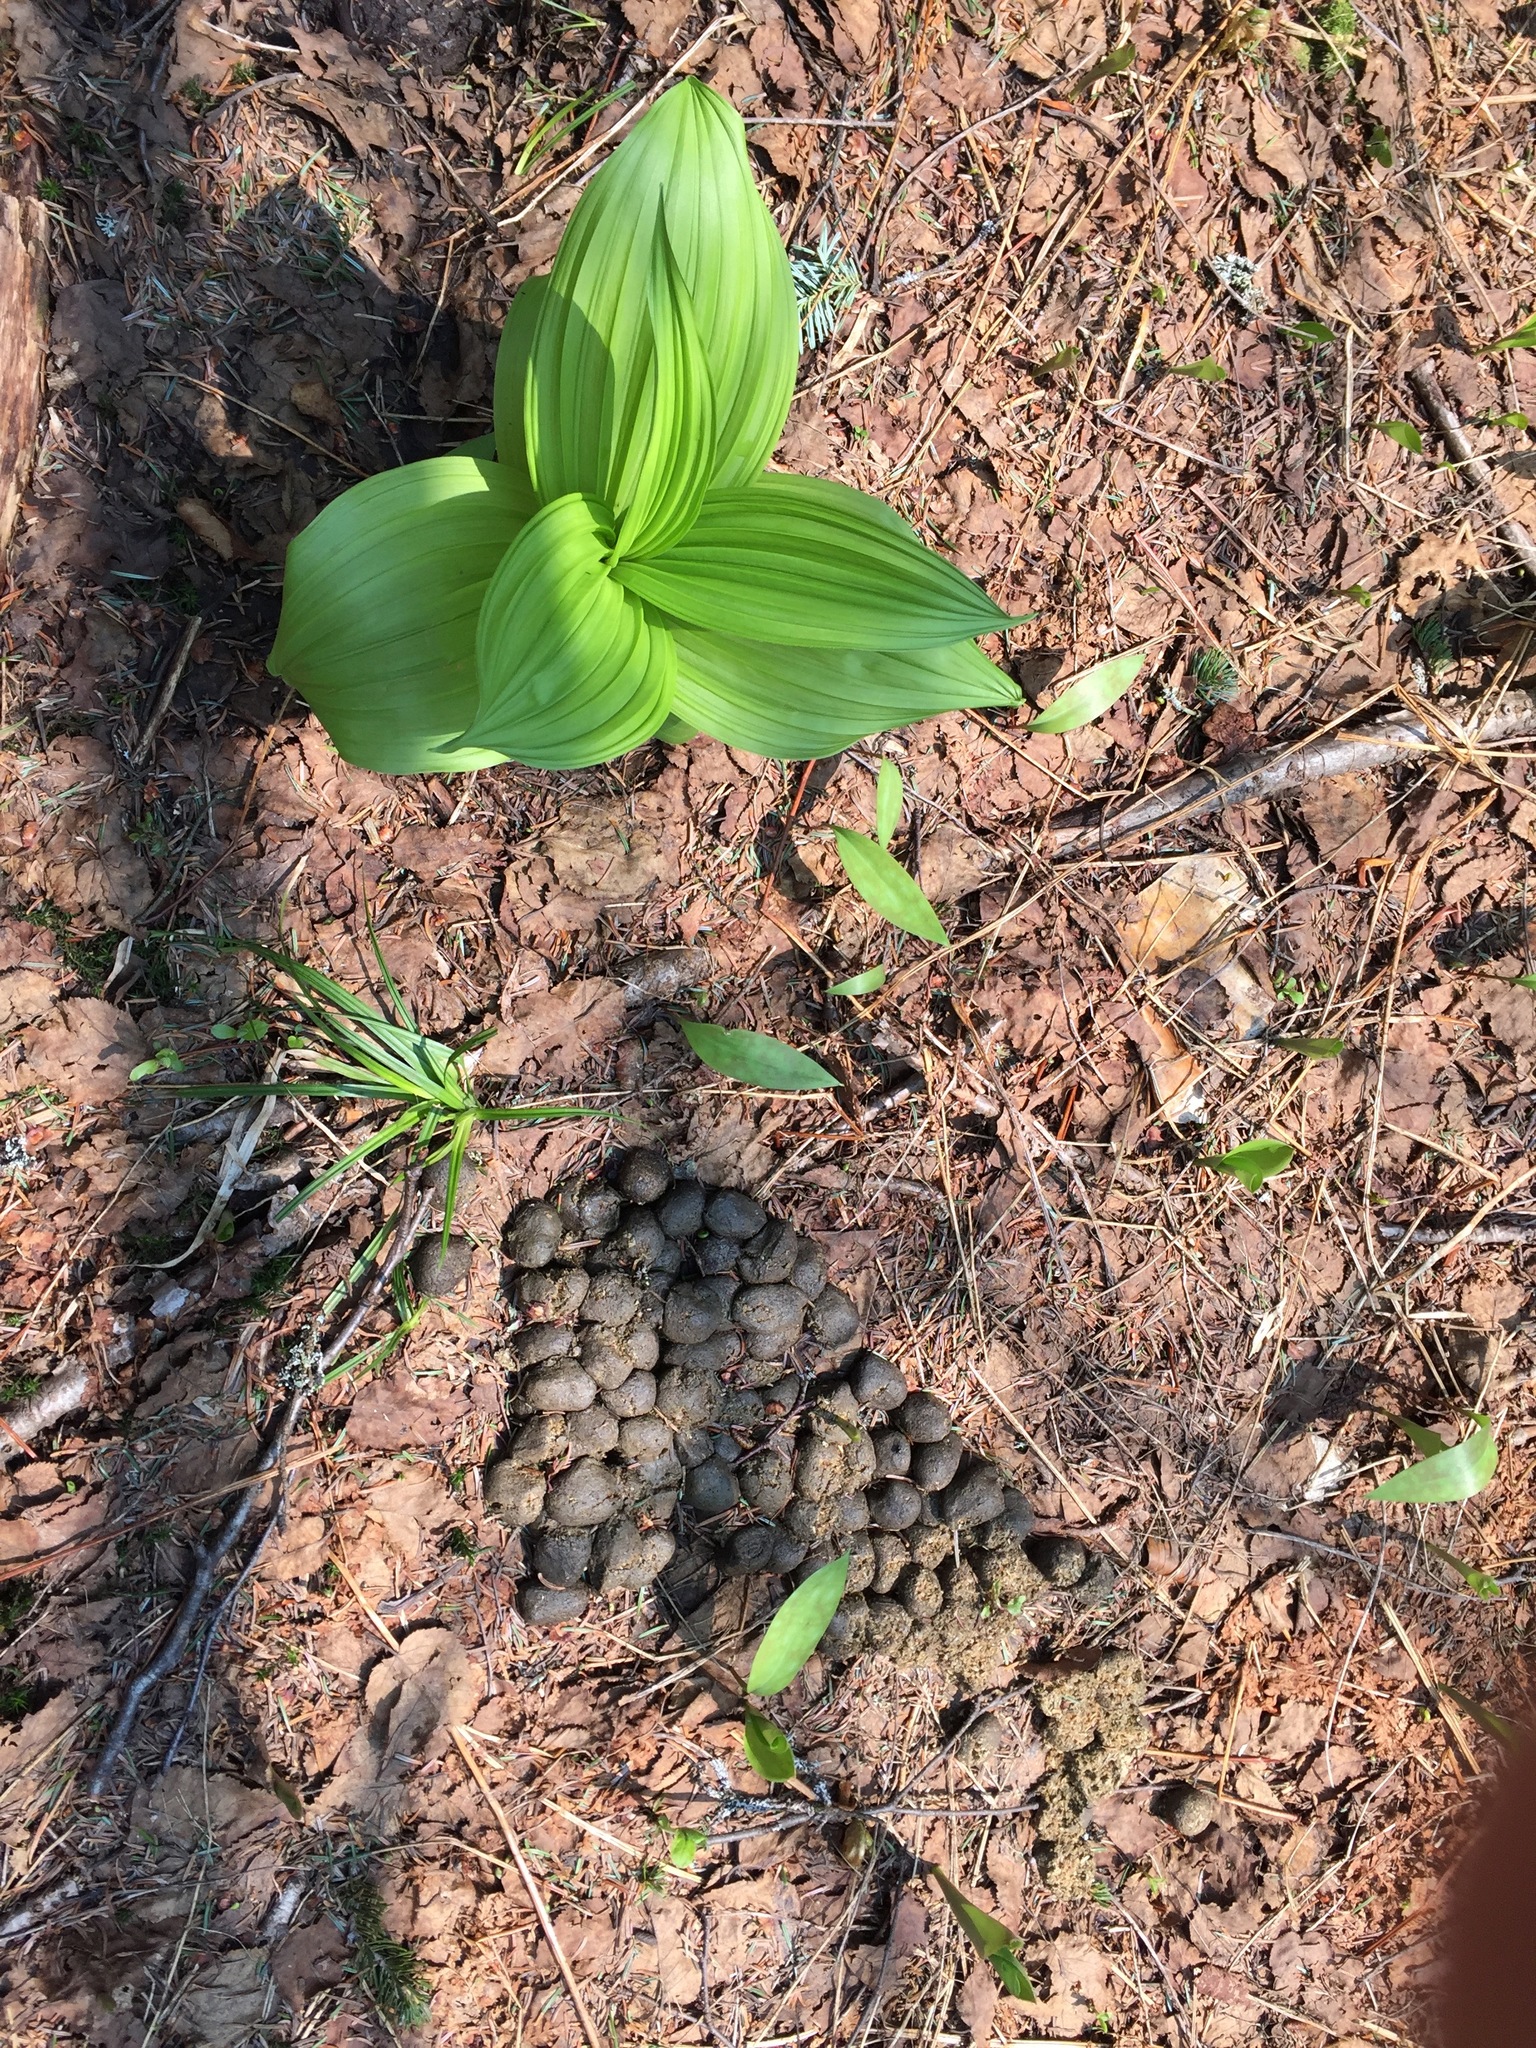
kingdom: Animalia
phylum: Chordata
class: Mammalia
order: Artiodactyla
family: Cervidae
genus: Alces
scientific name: Alces alces
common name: Moose
